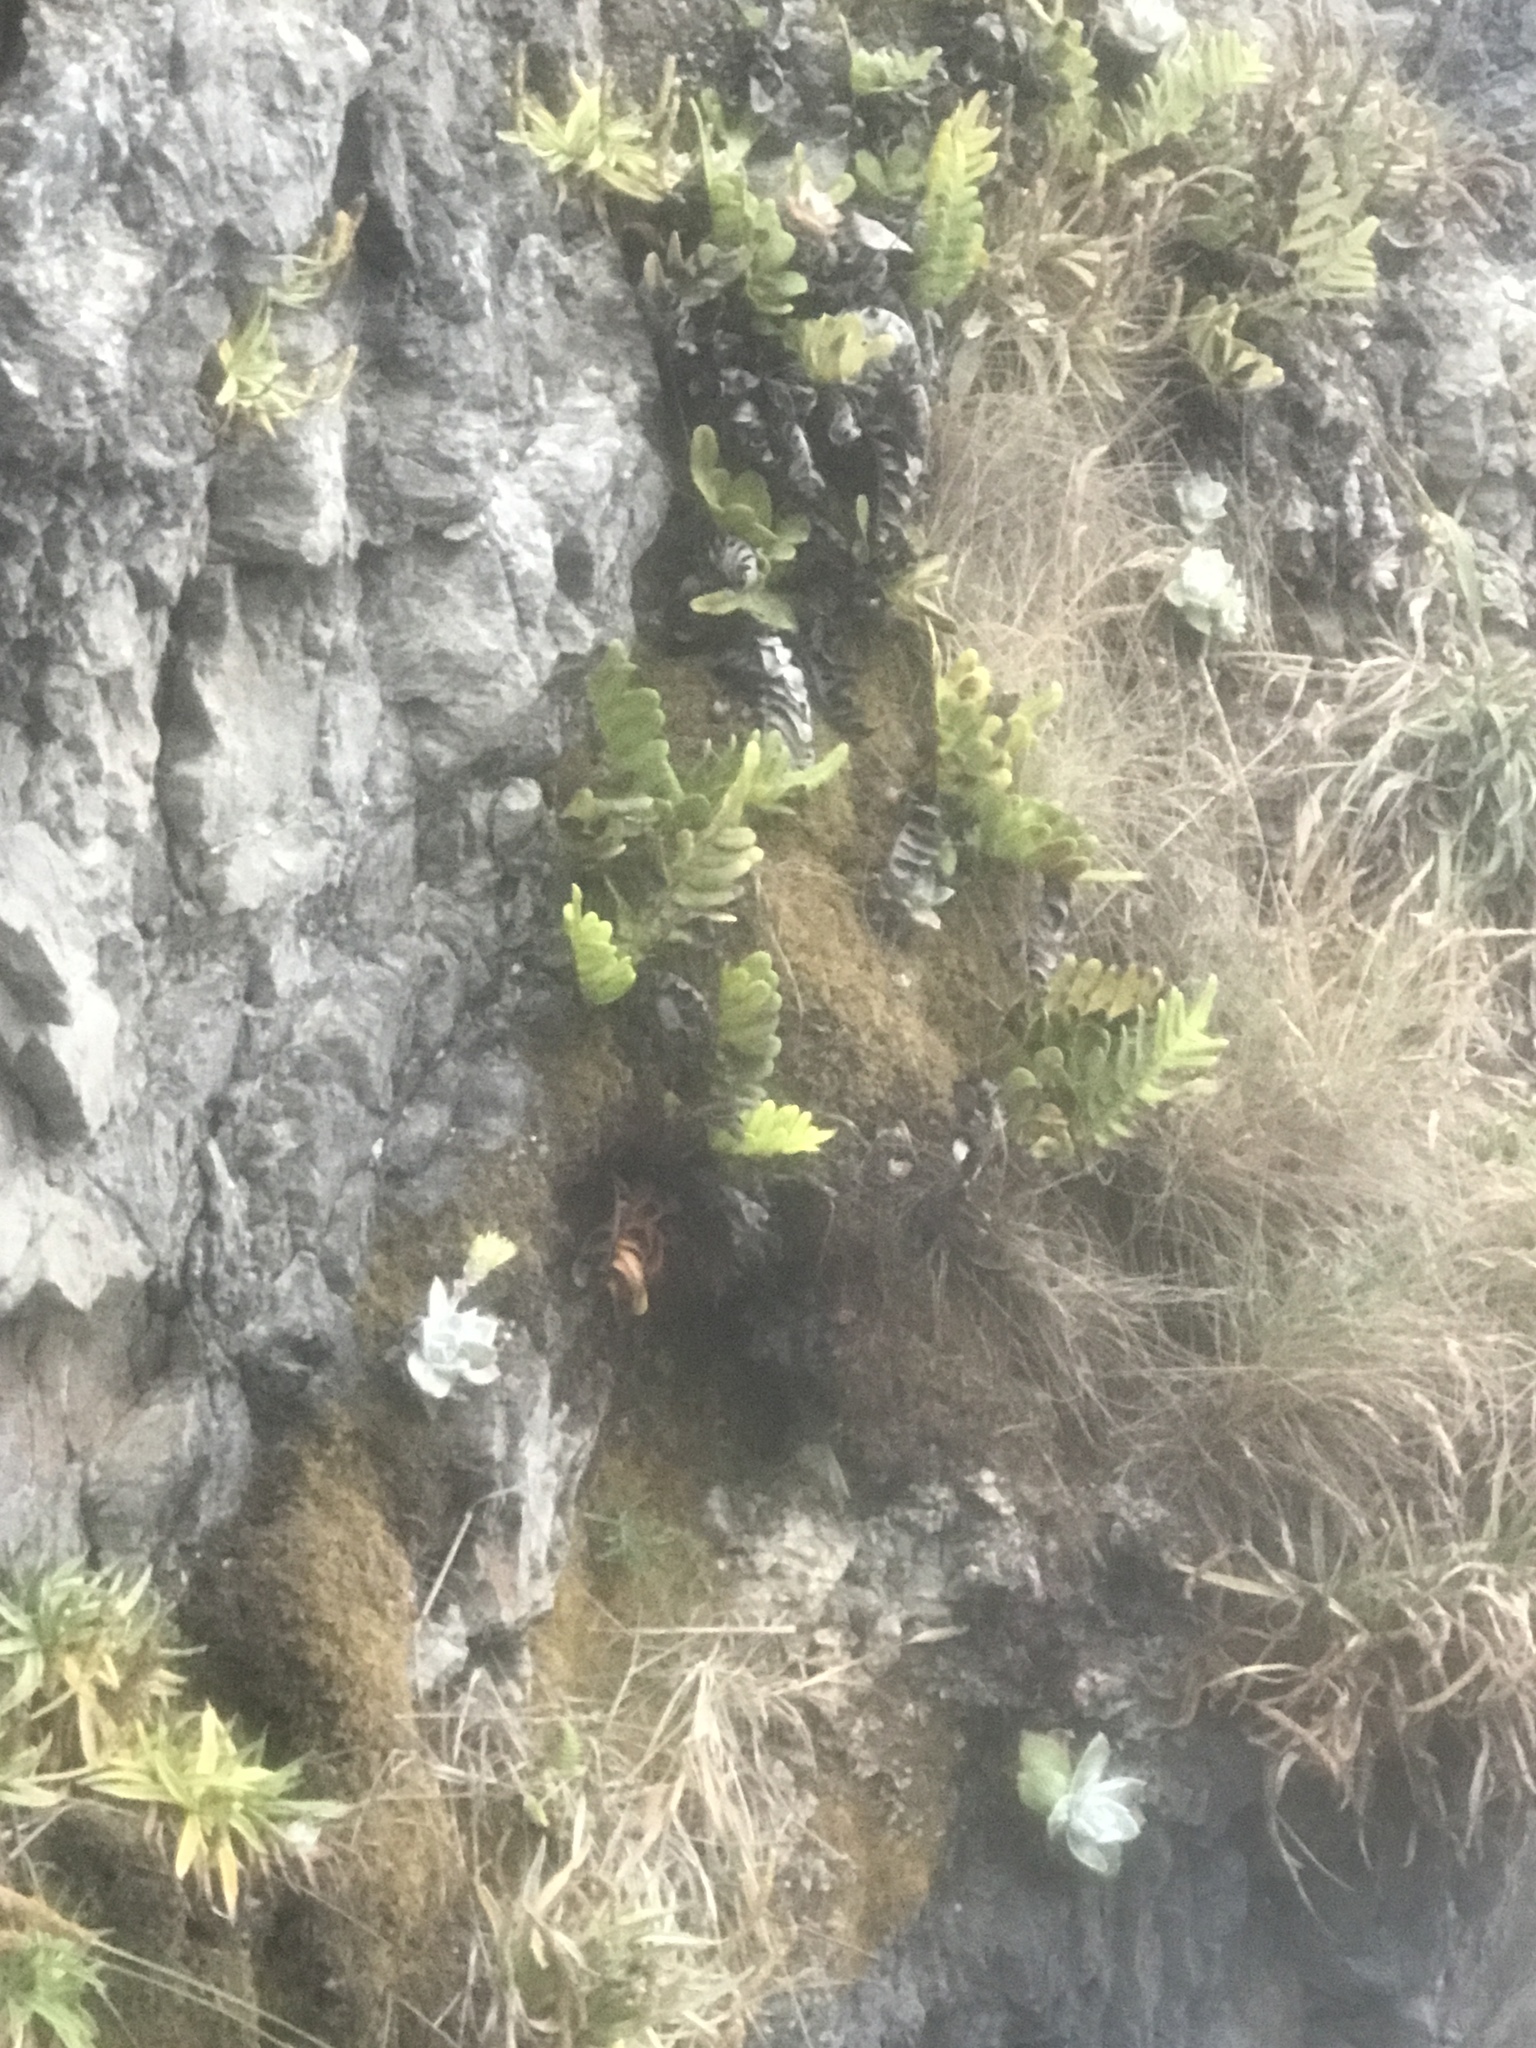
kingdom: Plantae
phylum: Tracheophyta
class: Polypodiopsida
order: Polypodiales
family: Polypodiaceae
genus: Polypodium
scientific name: Polypodium scouleri
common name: Scouler's polypody
